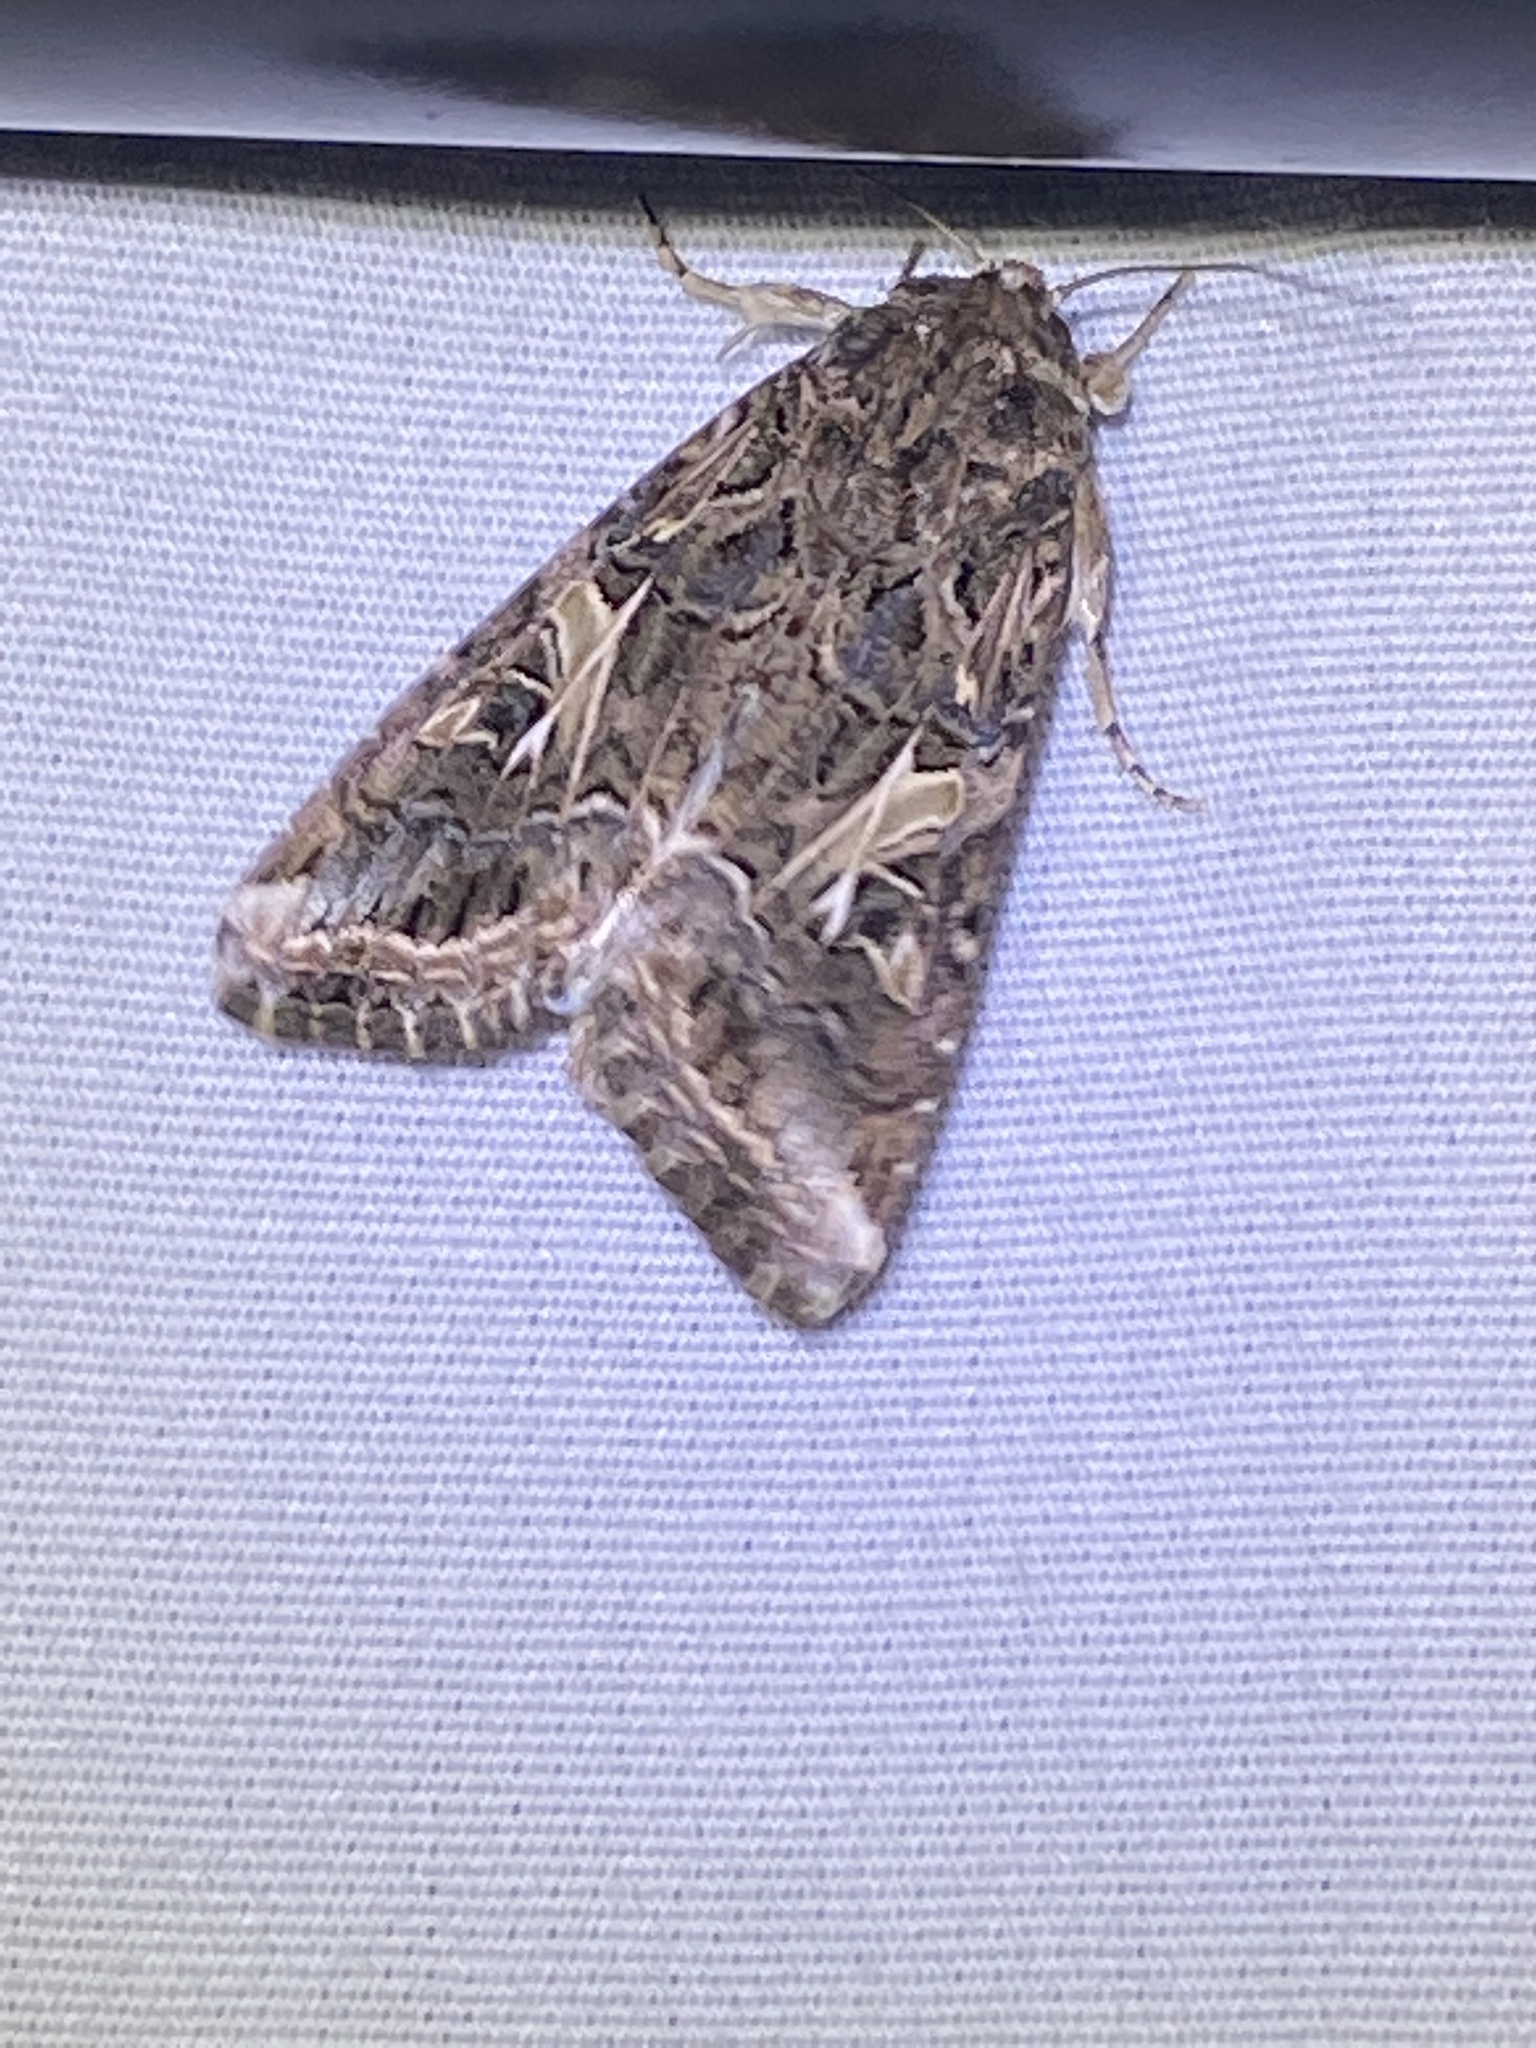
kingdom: Animalia
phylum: Arthropoda
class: Insecta
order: Lepidoptera
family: Noctuidae
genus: Spodoptera
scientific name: Spodoptera ornithogalli
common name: Yellow-striped armyworm
